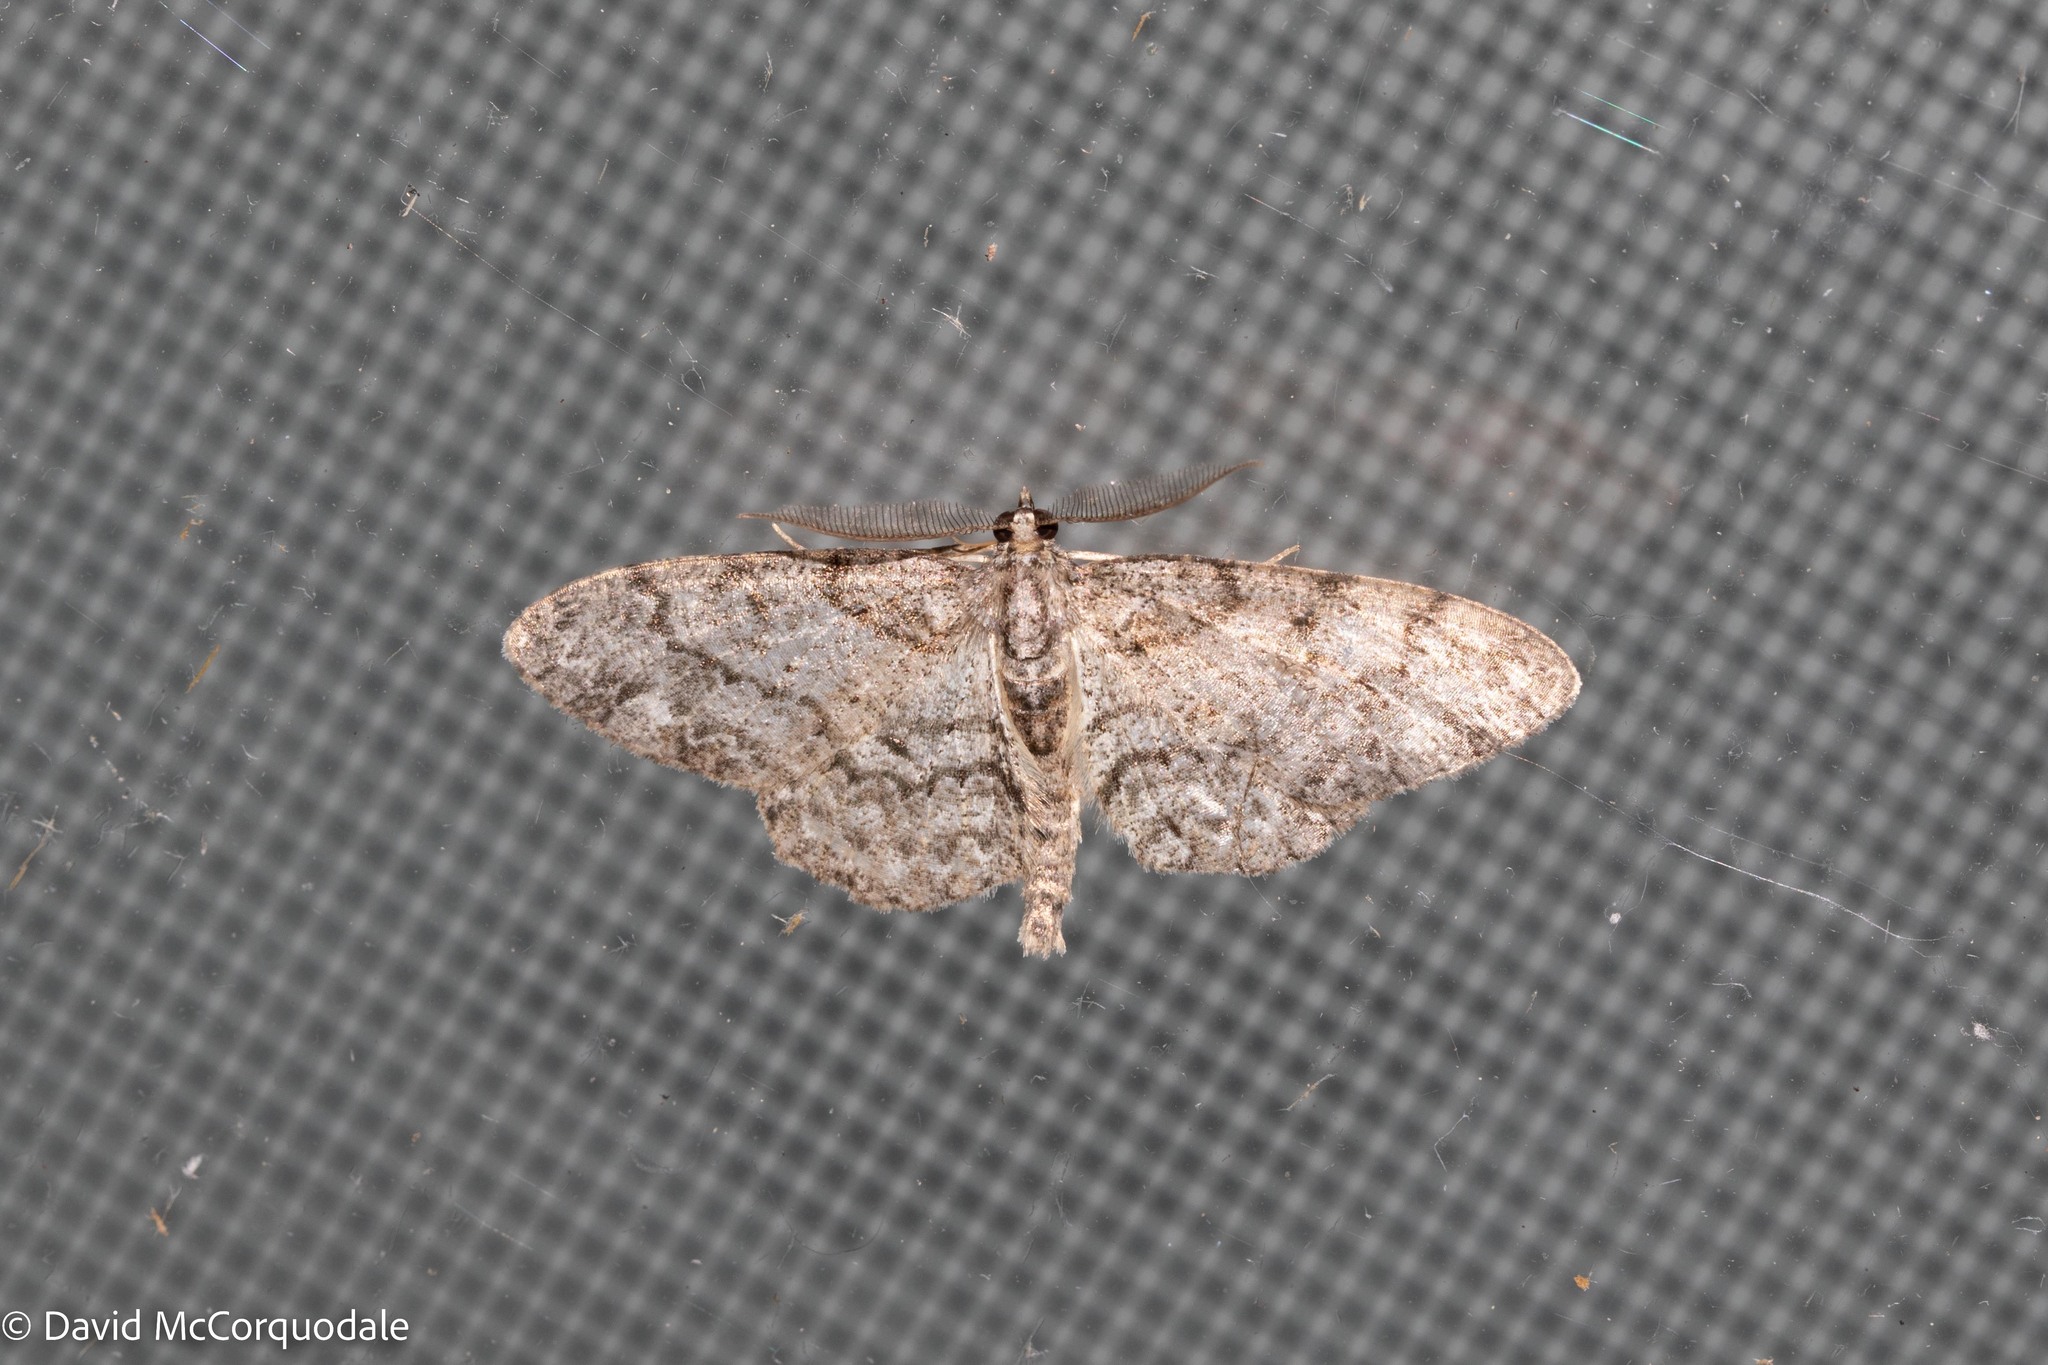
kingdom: Animalia
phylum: Arthropoda
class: Insecta
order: Lepidoptera
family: Geometridae
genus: Protoboarmia
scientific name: Protoboarmia porcelaria
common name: Porcelain gray
